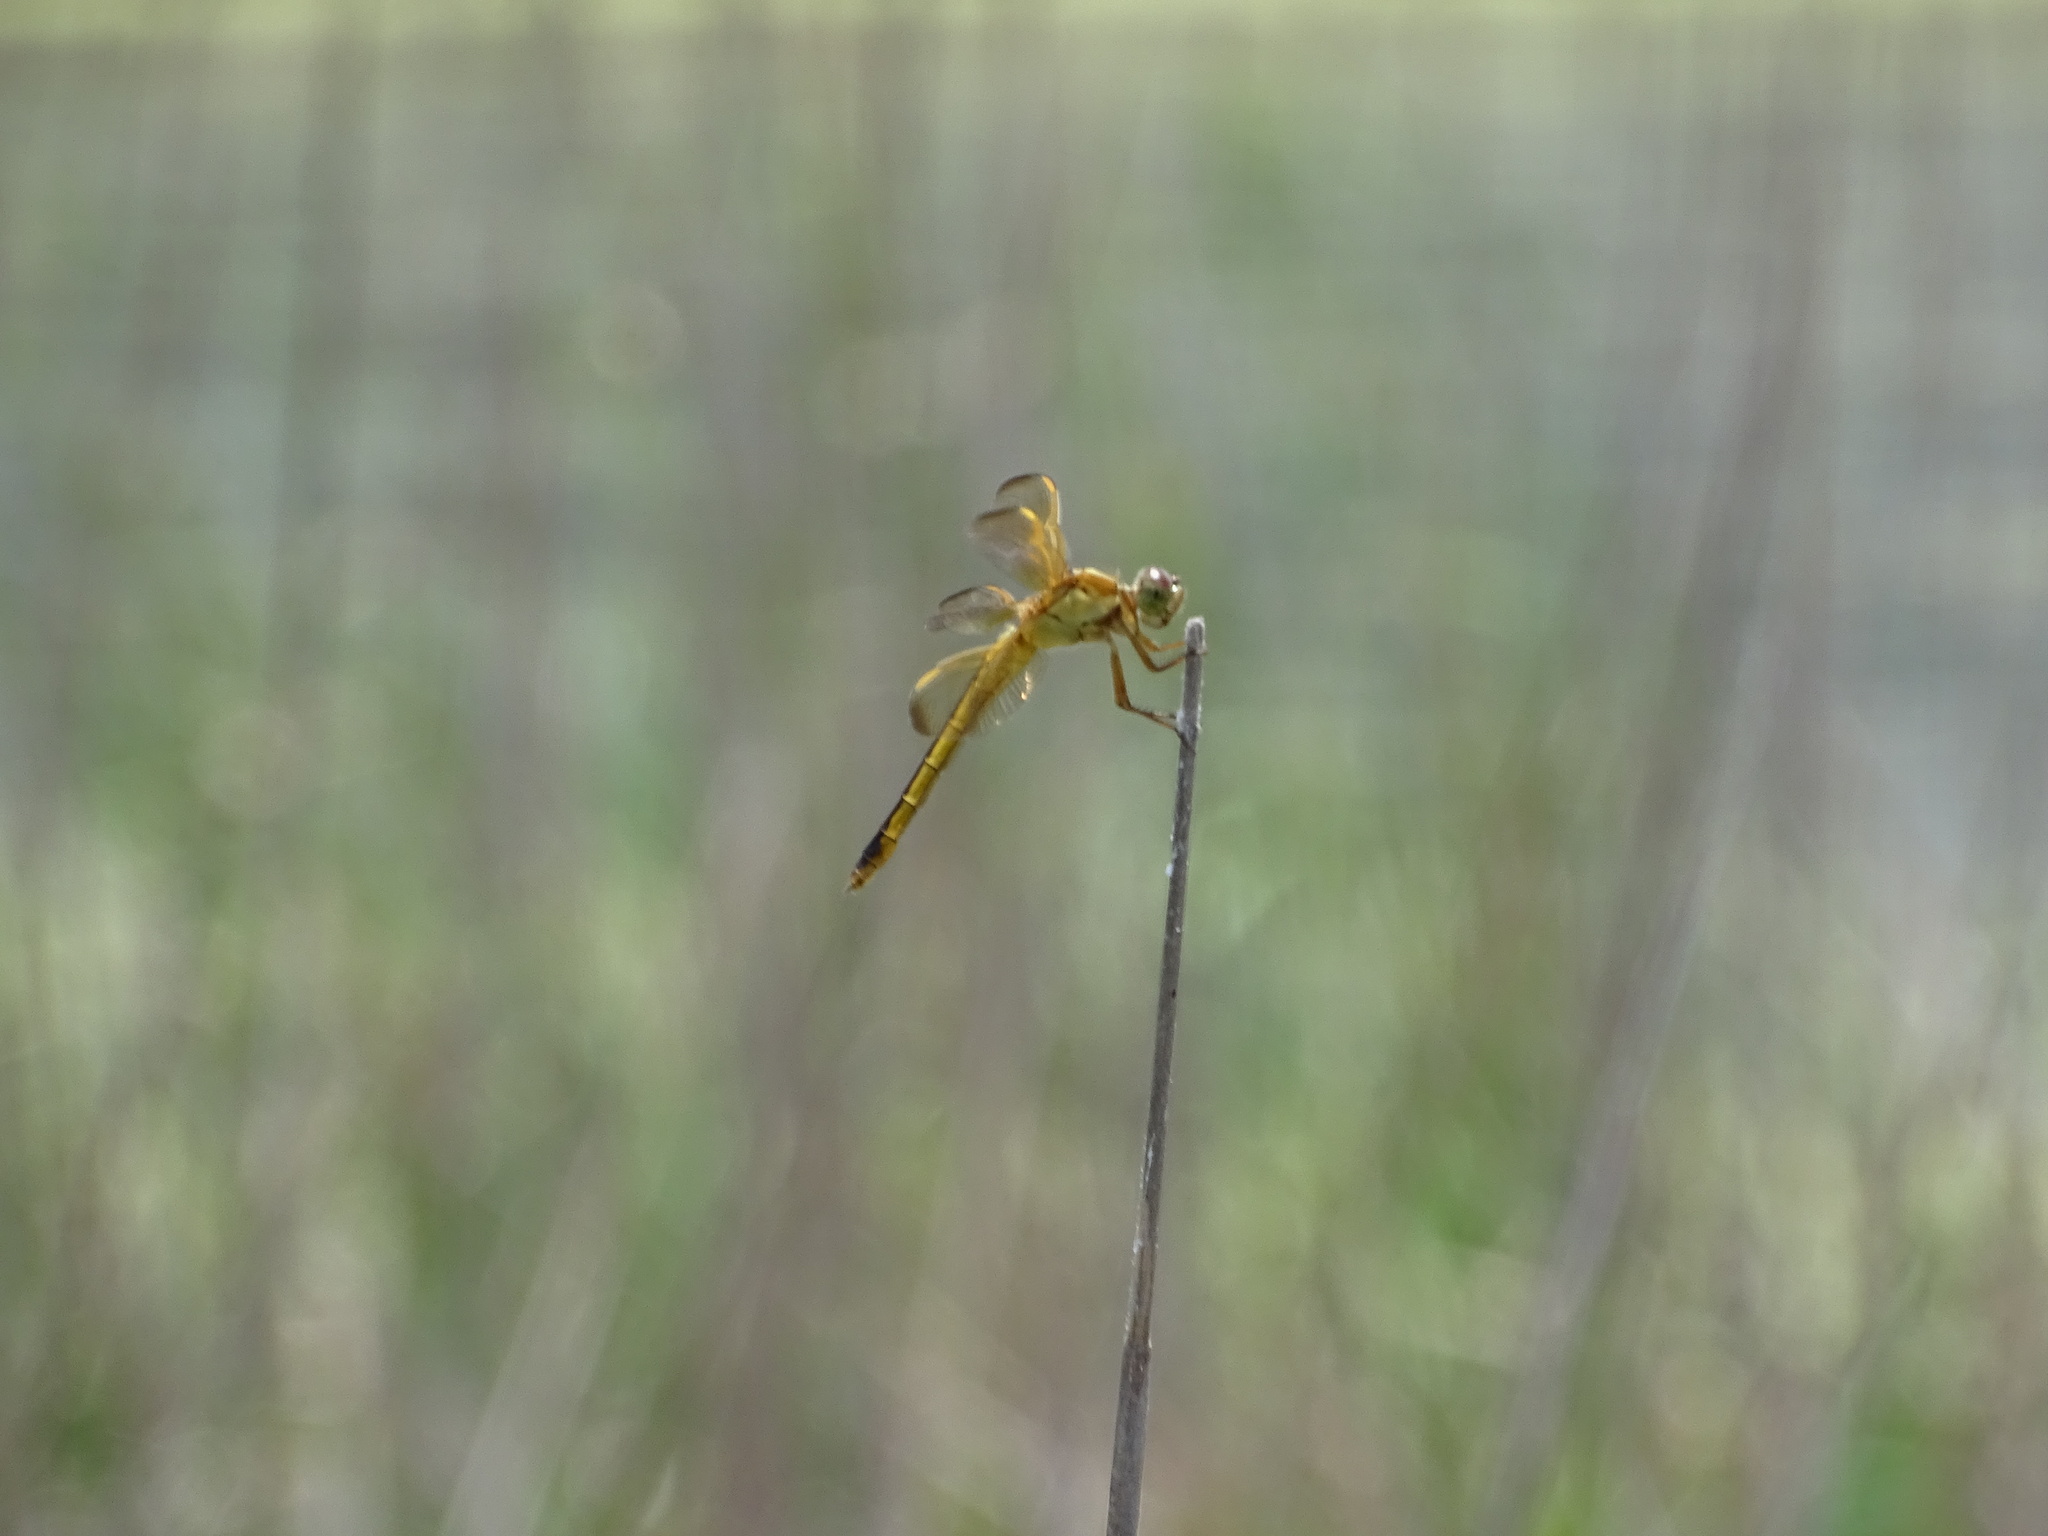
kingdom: Animalia
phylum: Arthropoda
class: Insecta
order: Odonata
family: Libellulidae
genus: Libellula
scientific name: Libellula needhami
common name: Needham's skimmer
